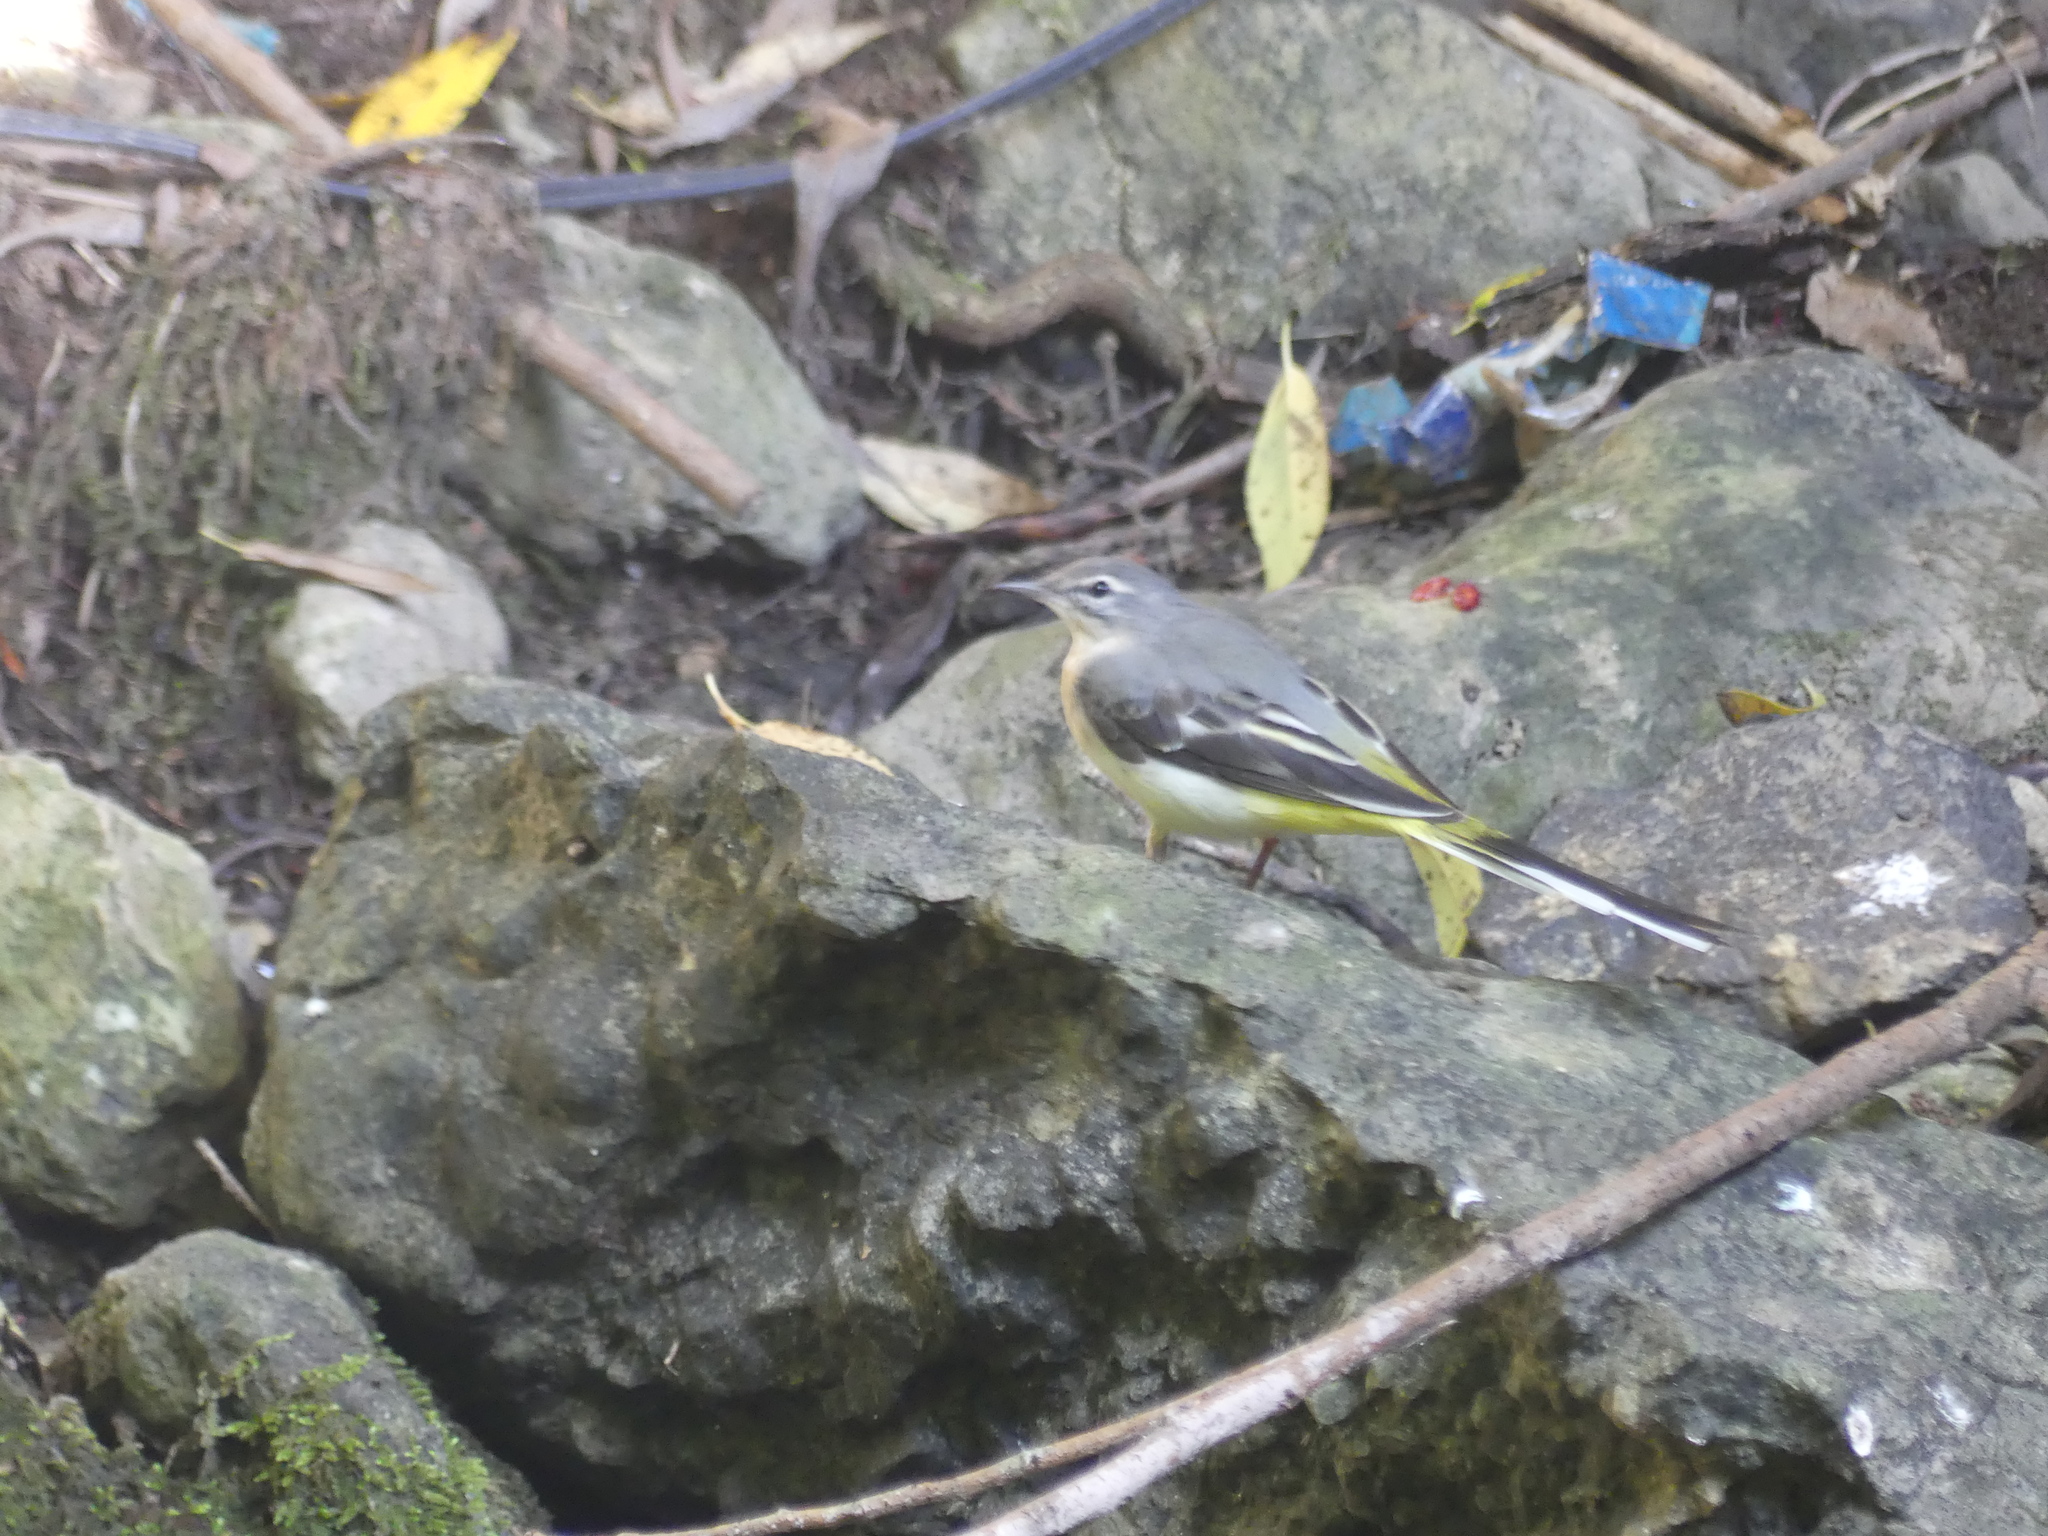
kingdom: Animalia
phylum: Chordata
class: Aves
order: Passeriformes
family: Motacillidae
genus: Motacilla
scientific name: Motacilla cinerea
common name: Grey wagtail
